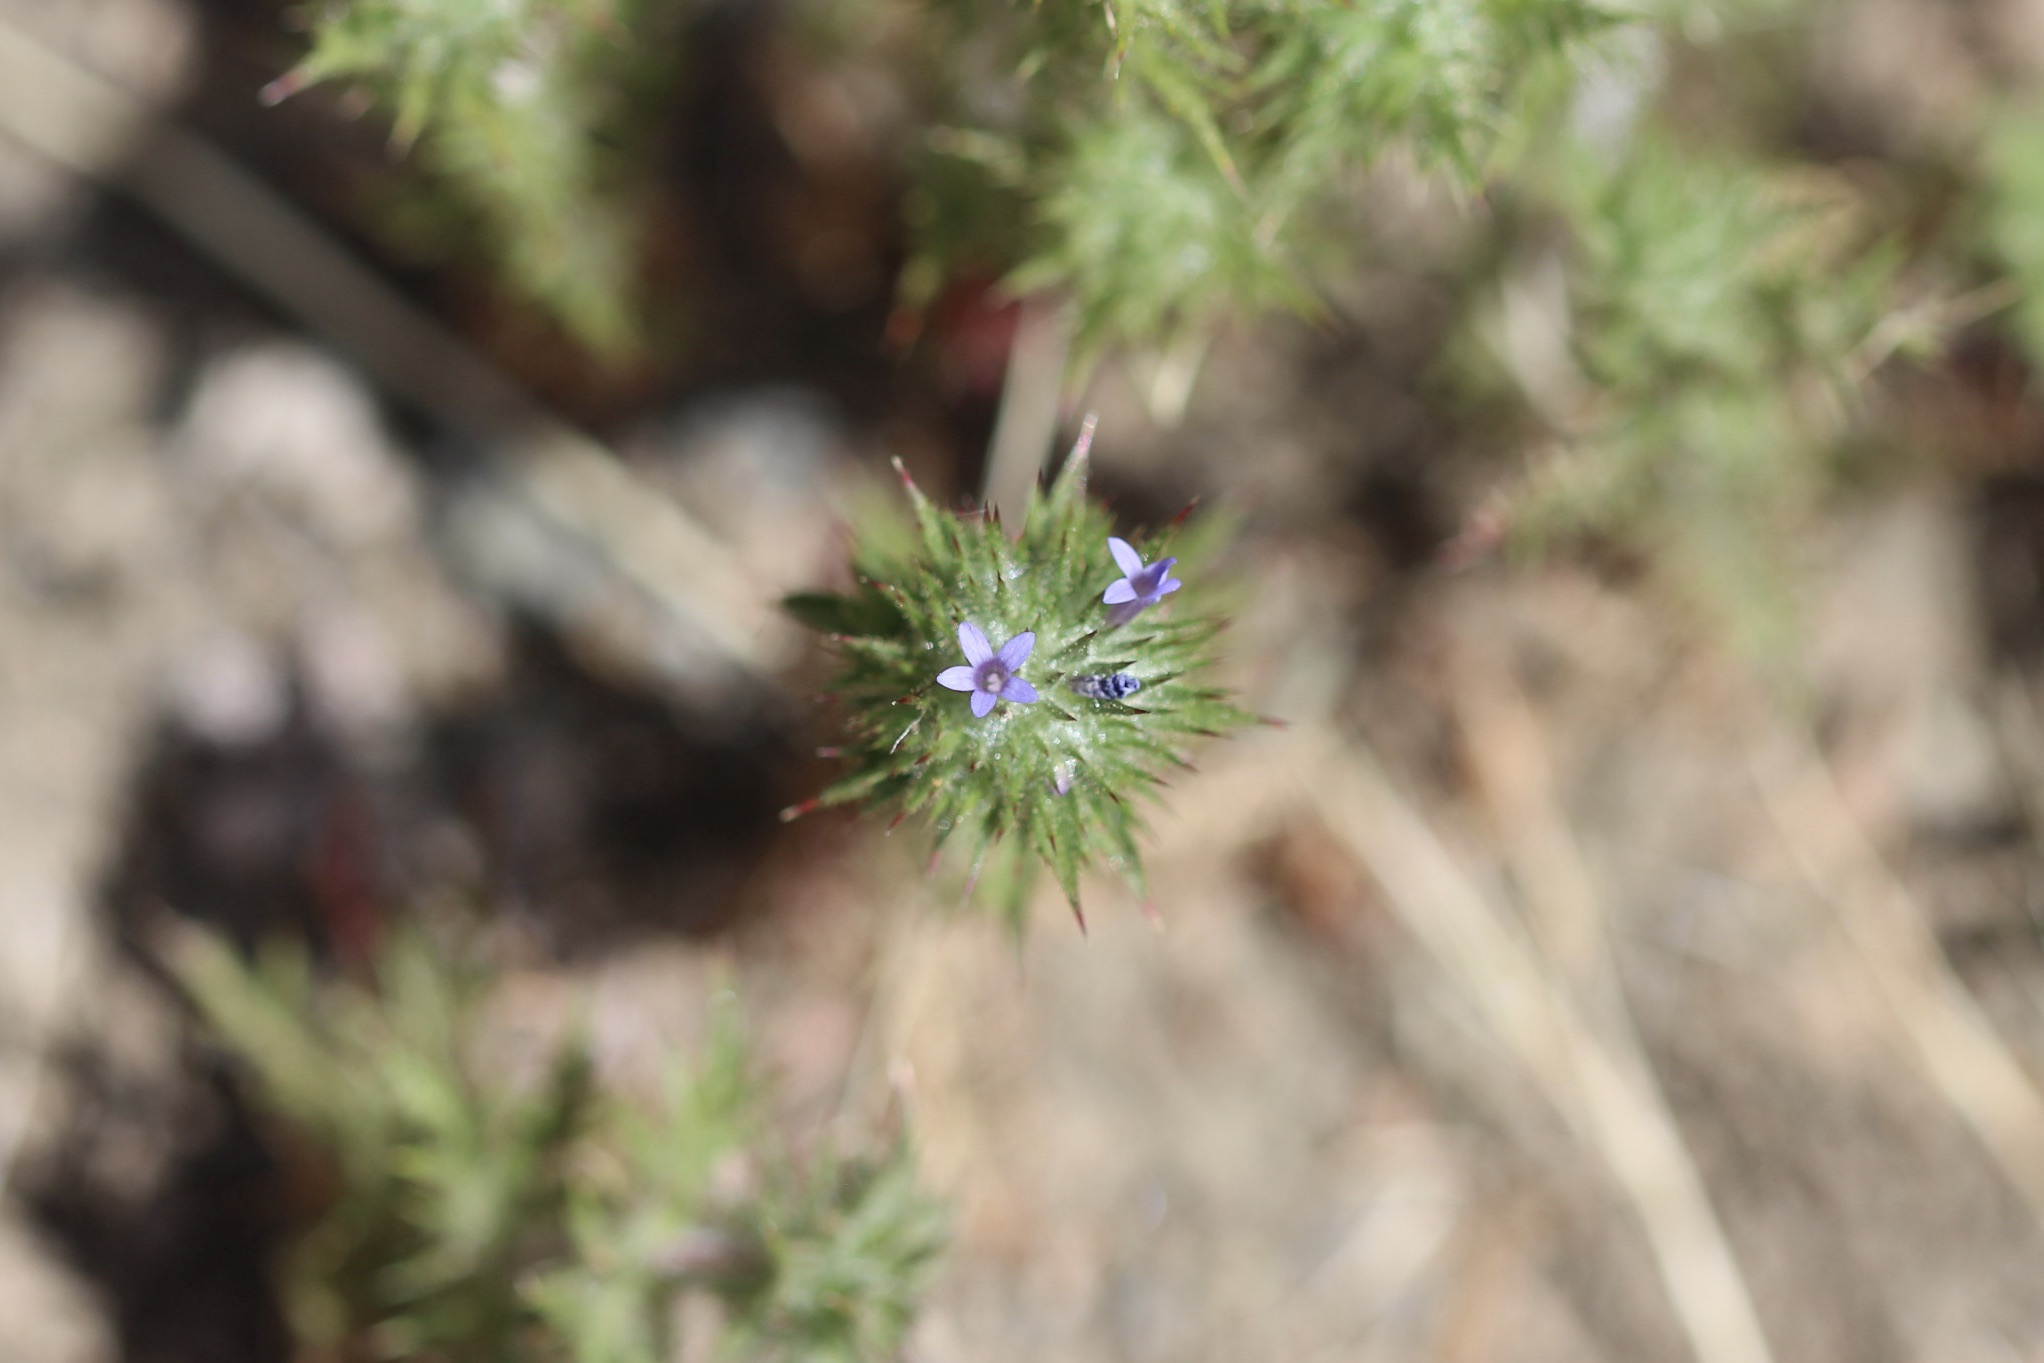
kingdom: Plantae
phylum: Tracheophyta
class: Magnoliopsida
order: Ericales
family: Polemoniaceae
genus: Navarretia
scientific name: Navarretia squarrosa
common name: Skunkweed
